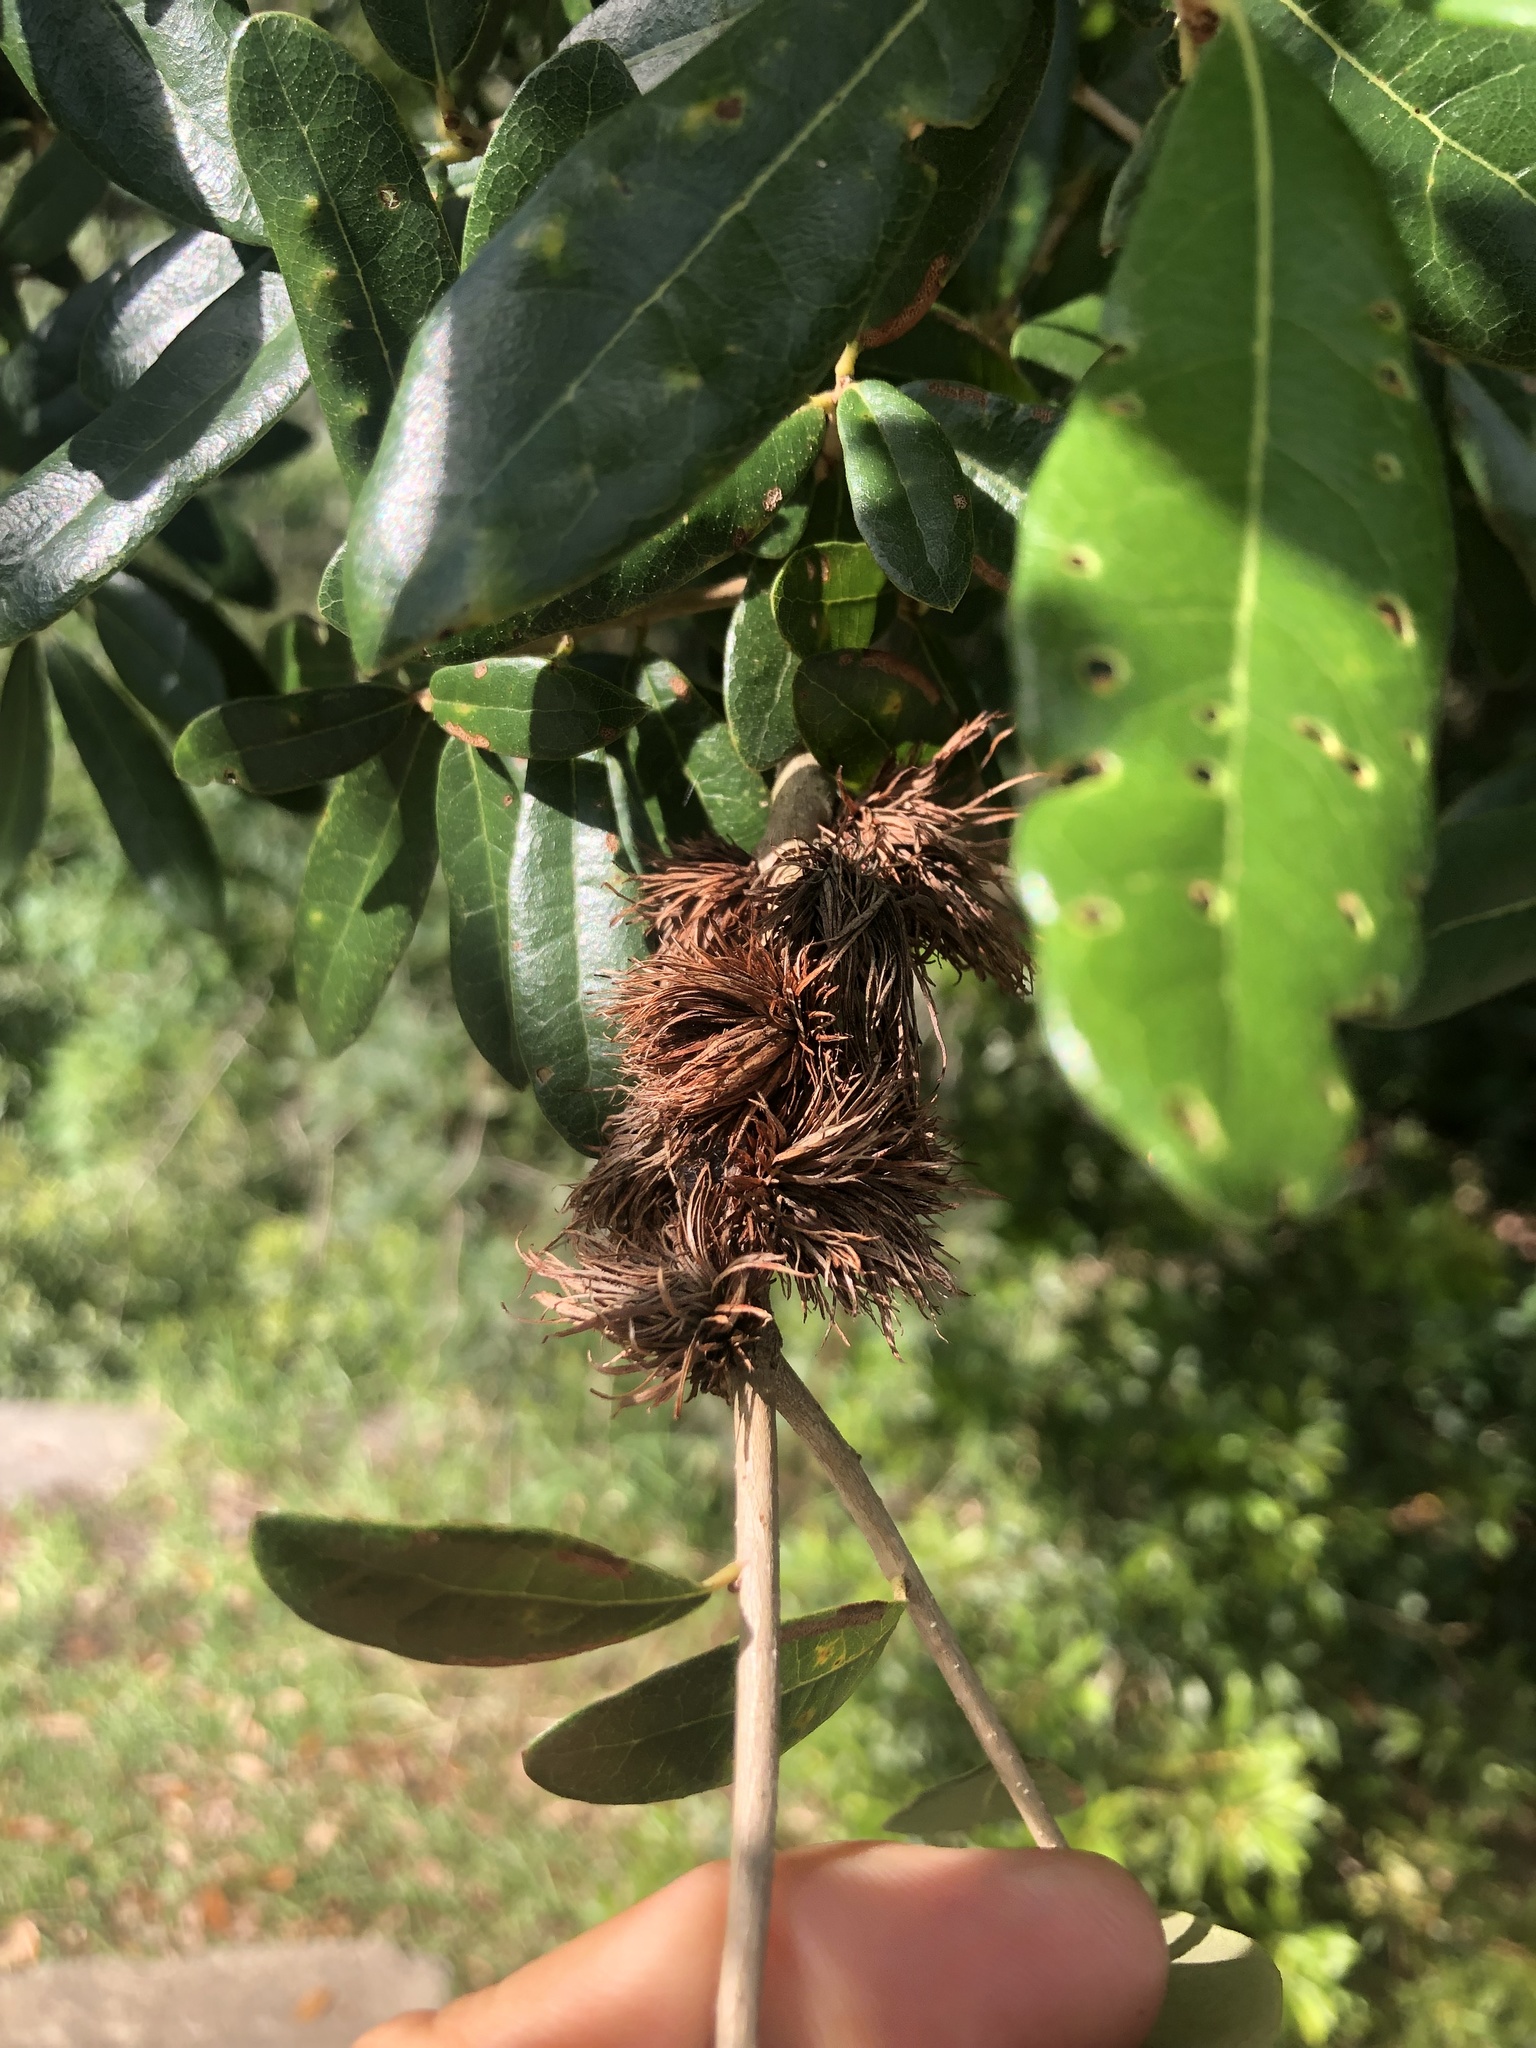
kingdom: Plantae
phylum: Tracheophyta
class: Magnoliopsida
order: Fagales
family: Fagaceae
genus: Quercus
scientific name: Quercus virginiana
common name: Southern live oak
